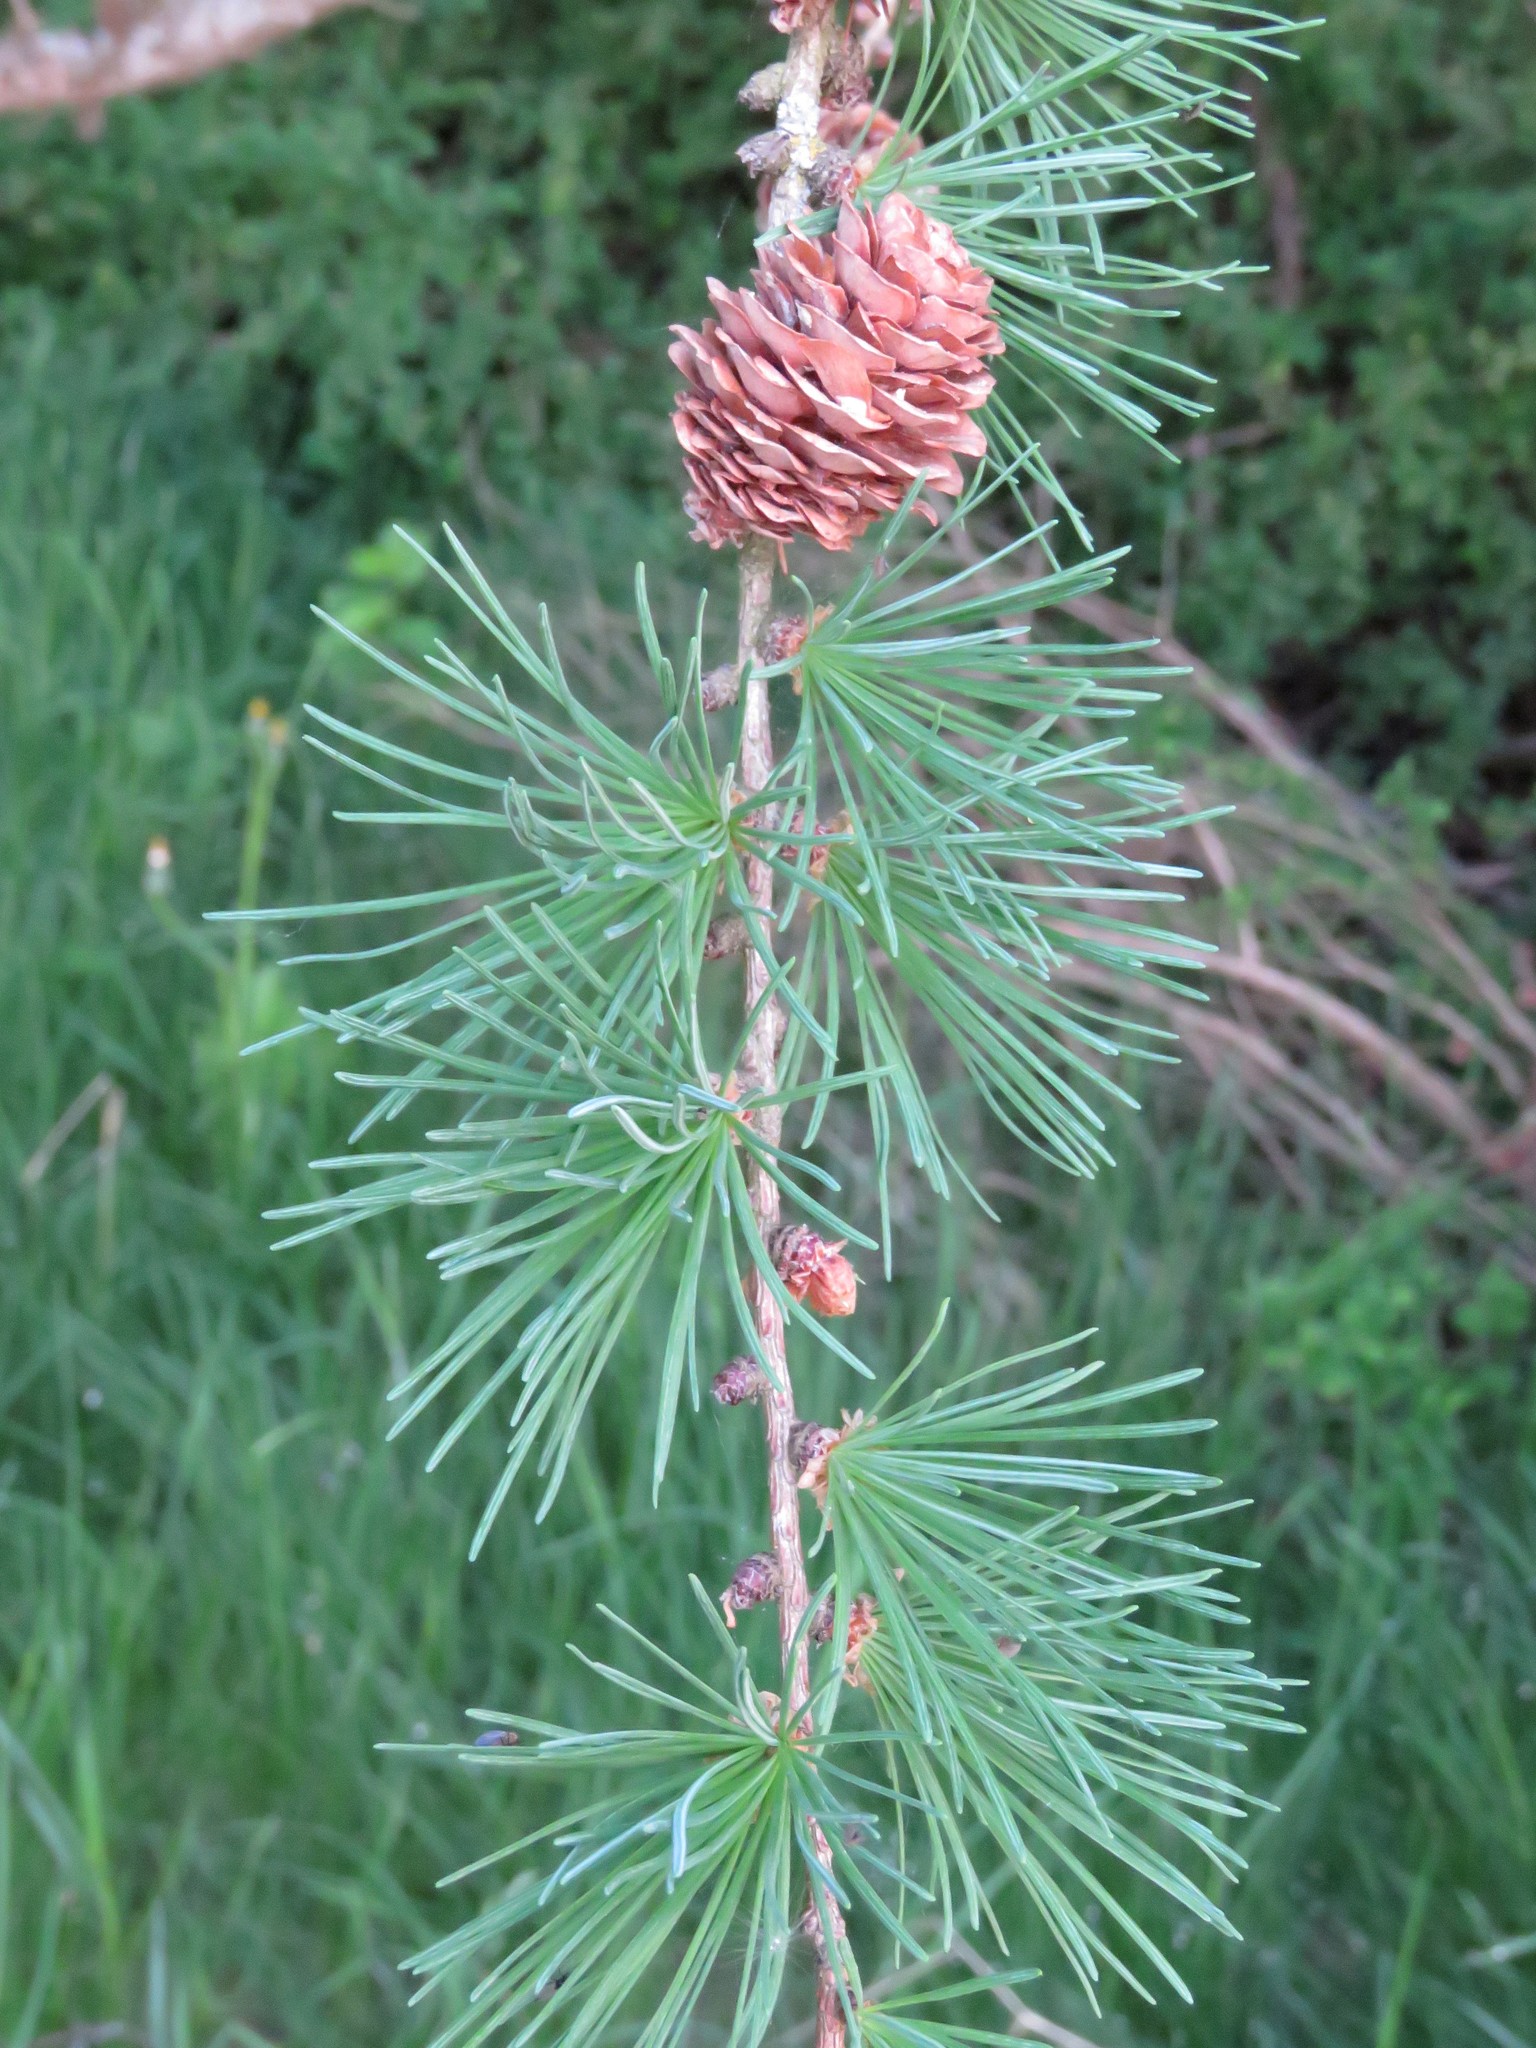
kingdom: Plantae
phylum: Tracheophyta
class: Pinopsida
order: Pinales
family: Pinaceae
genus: Larix
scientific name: Larix decidua
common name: European larch
